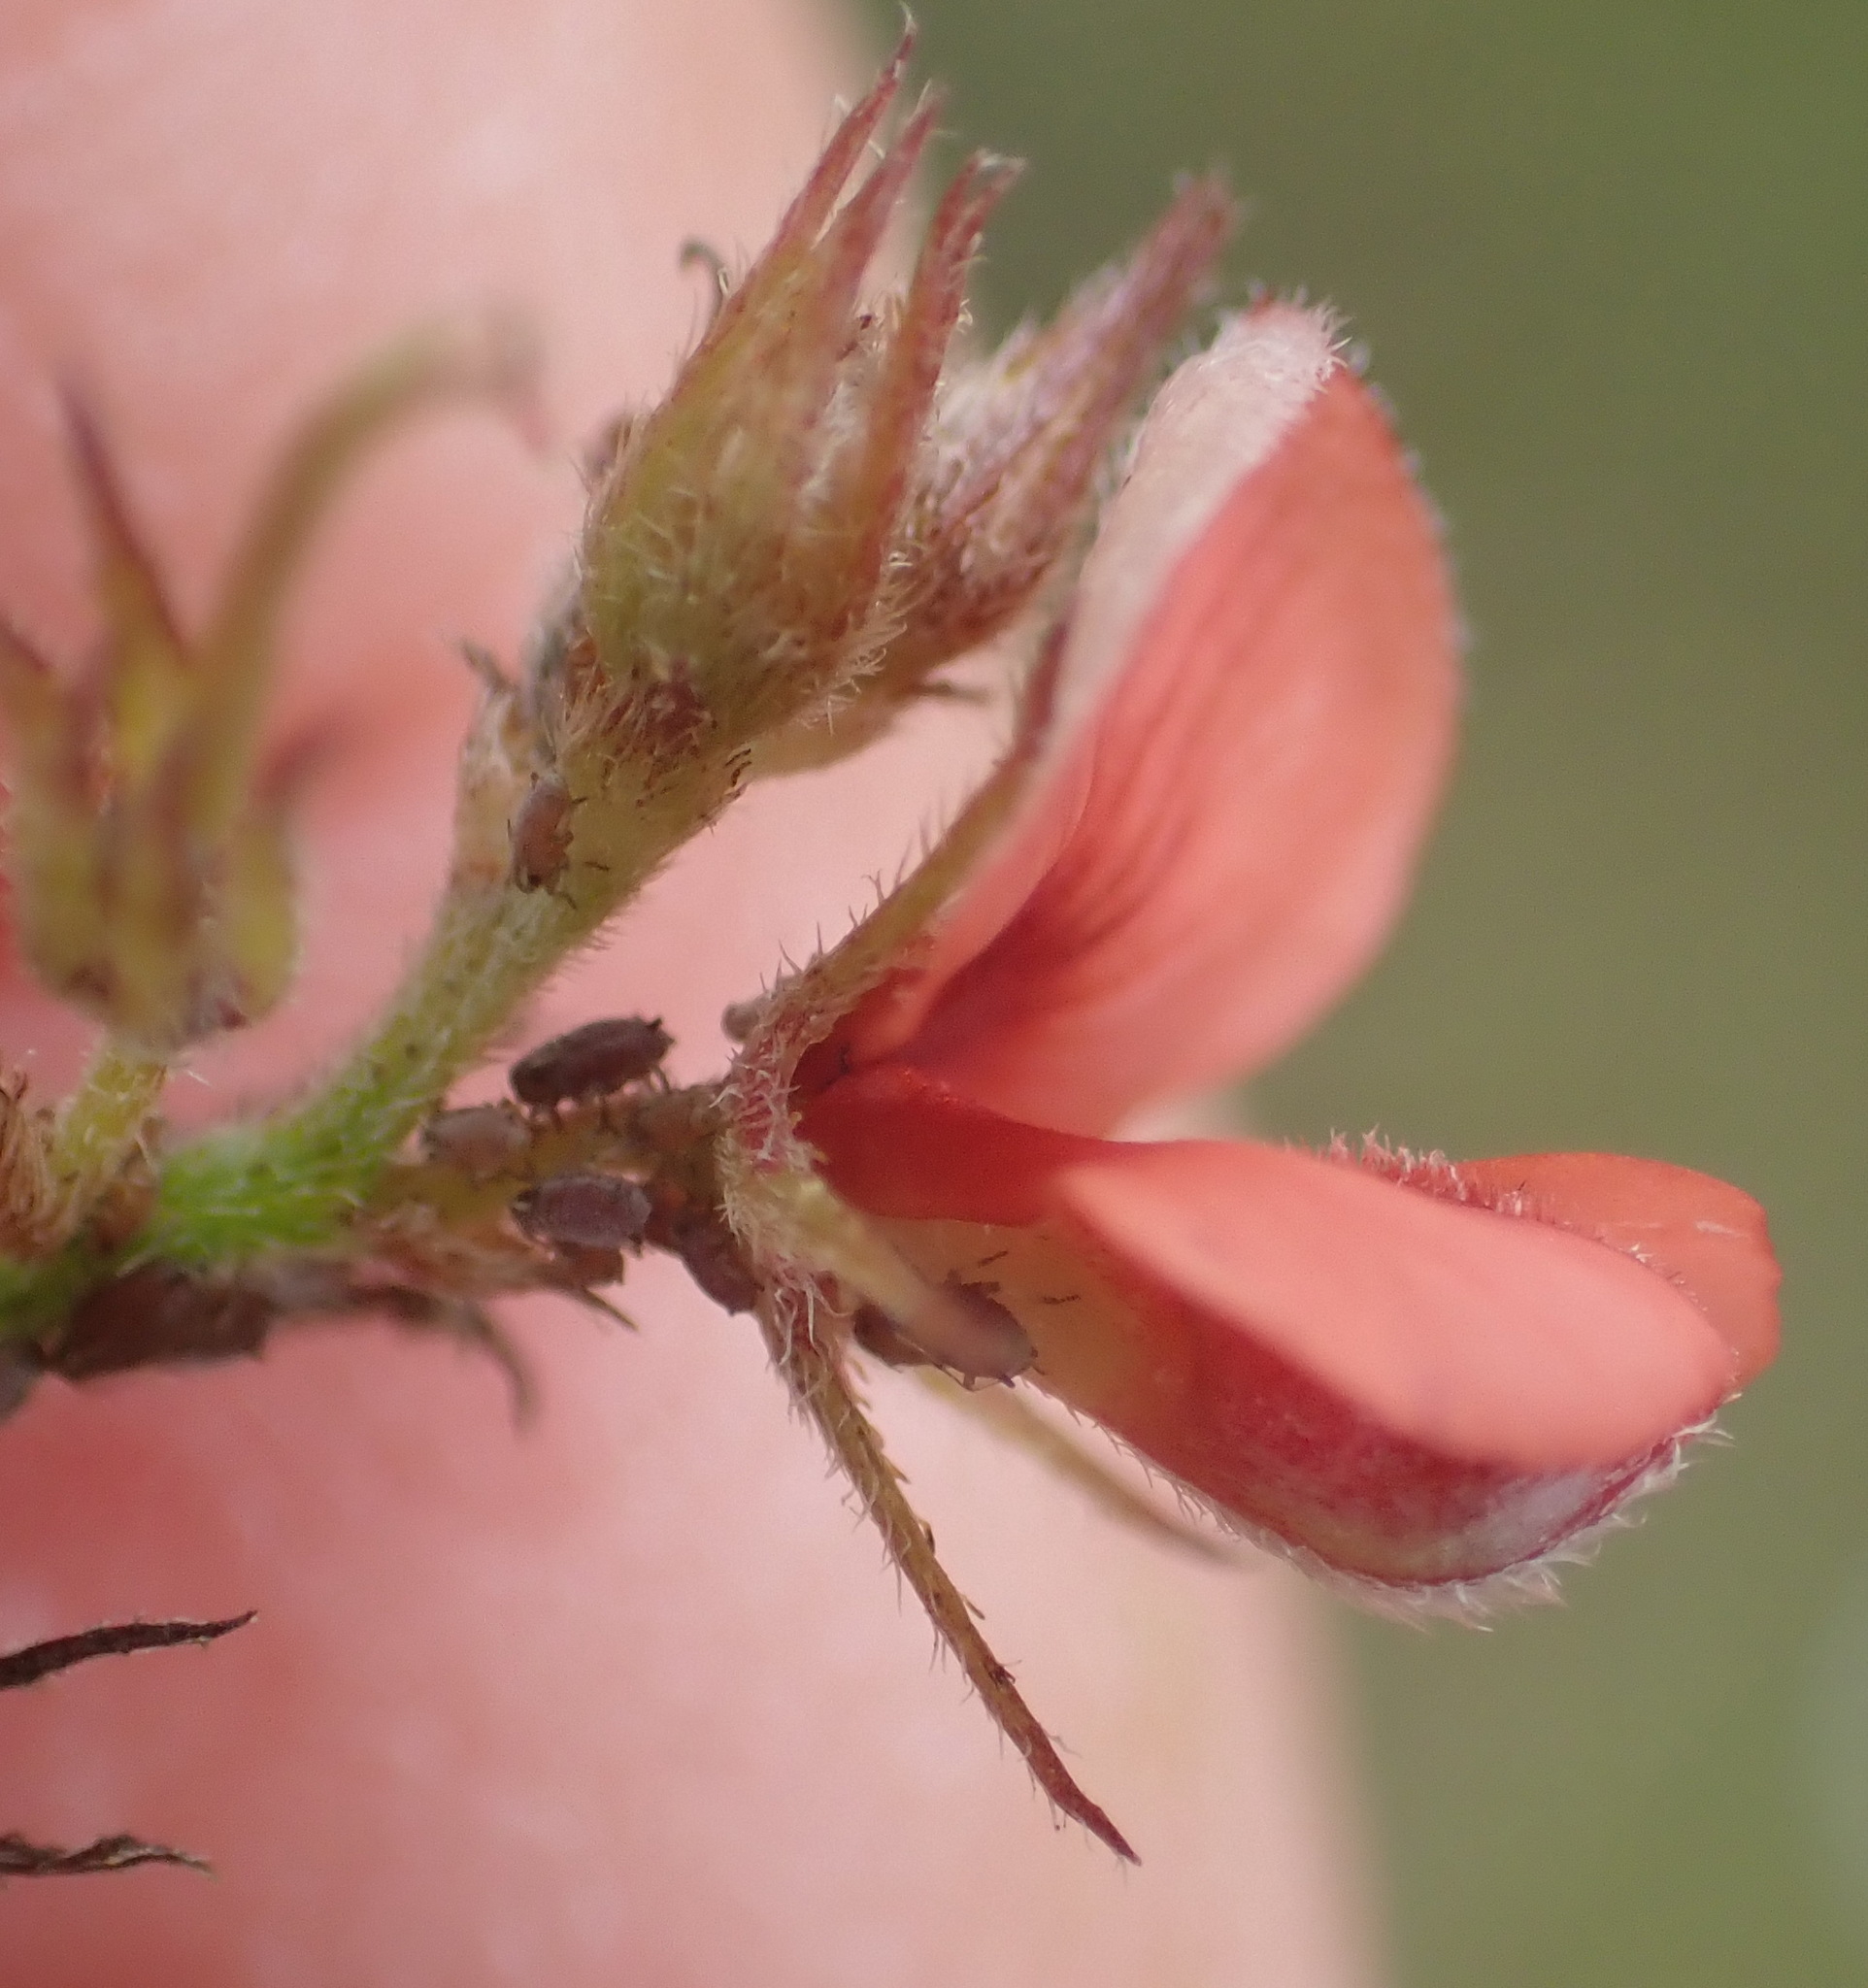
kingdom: Plantae
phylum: Tracheophyta
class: Magnoliopsida
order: Fabales
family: Fabaceae
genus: Indigofera
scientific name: Indigofera priorii
